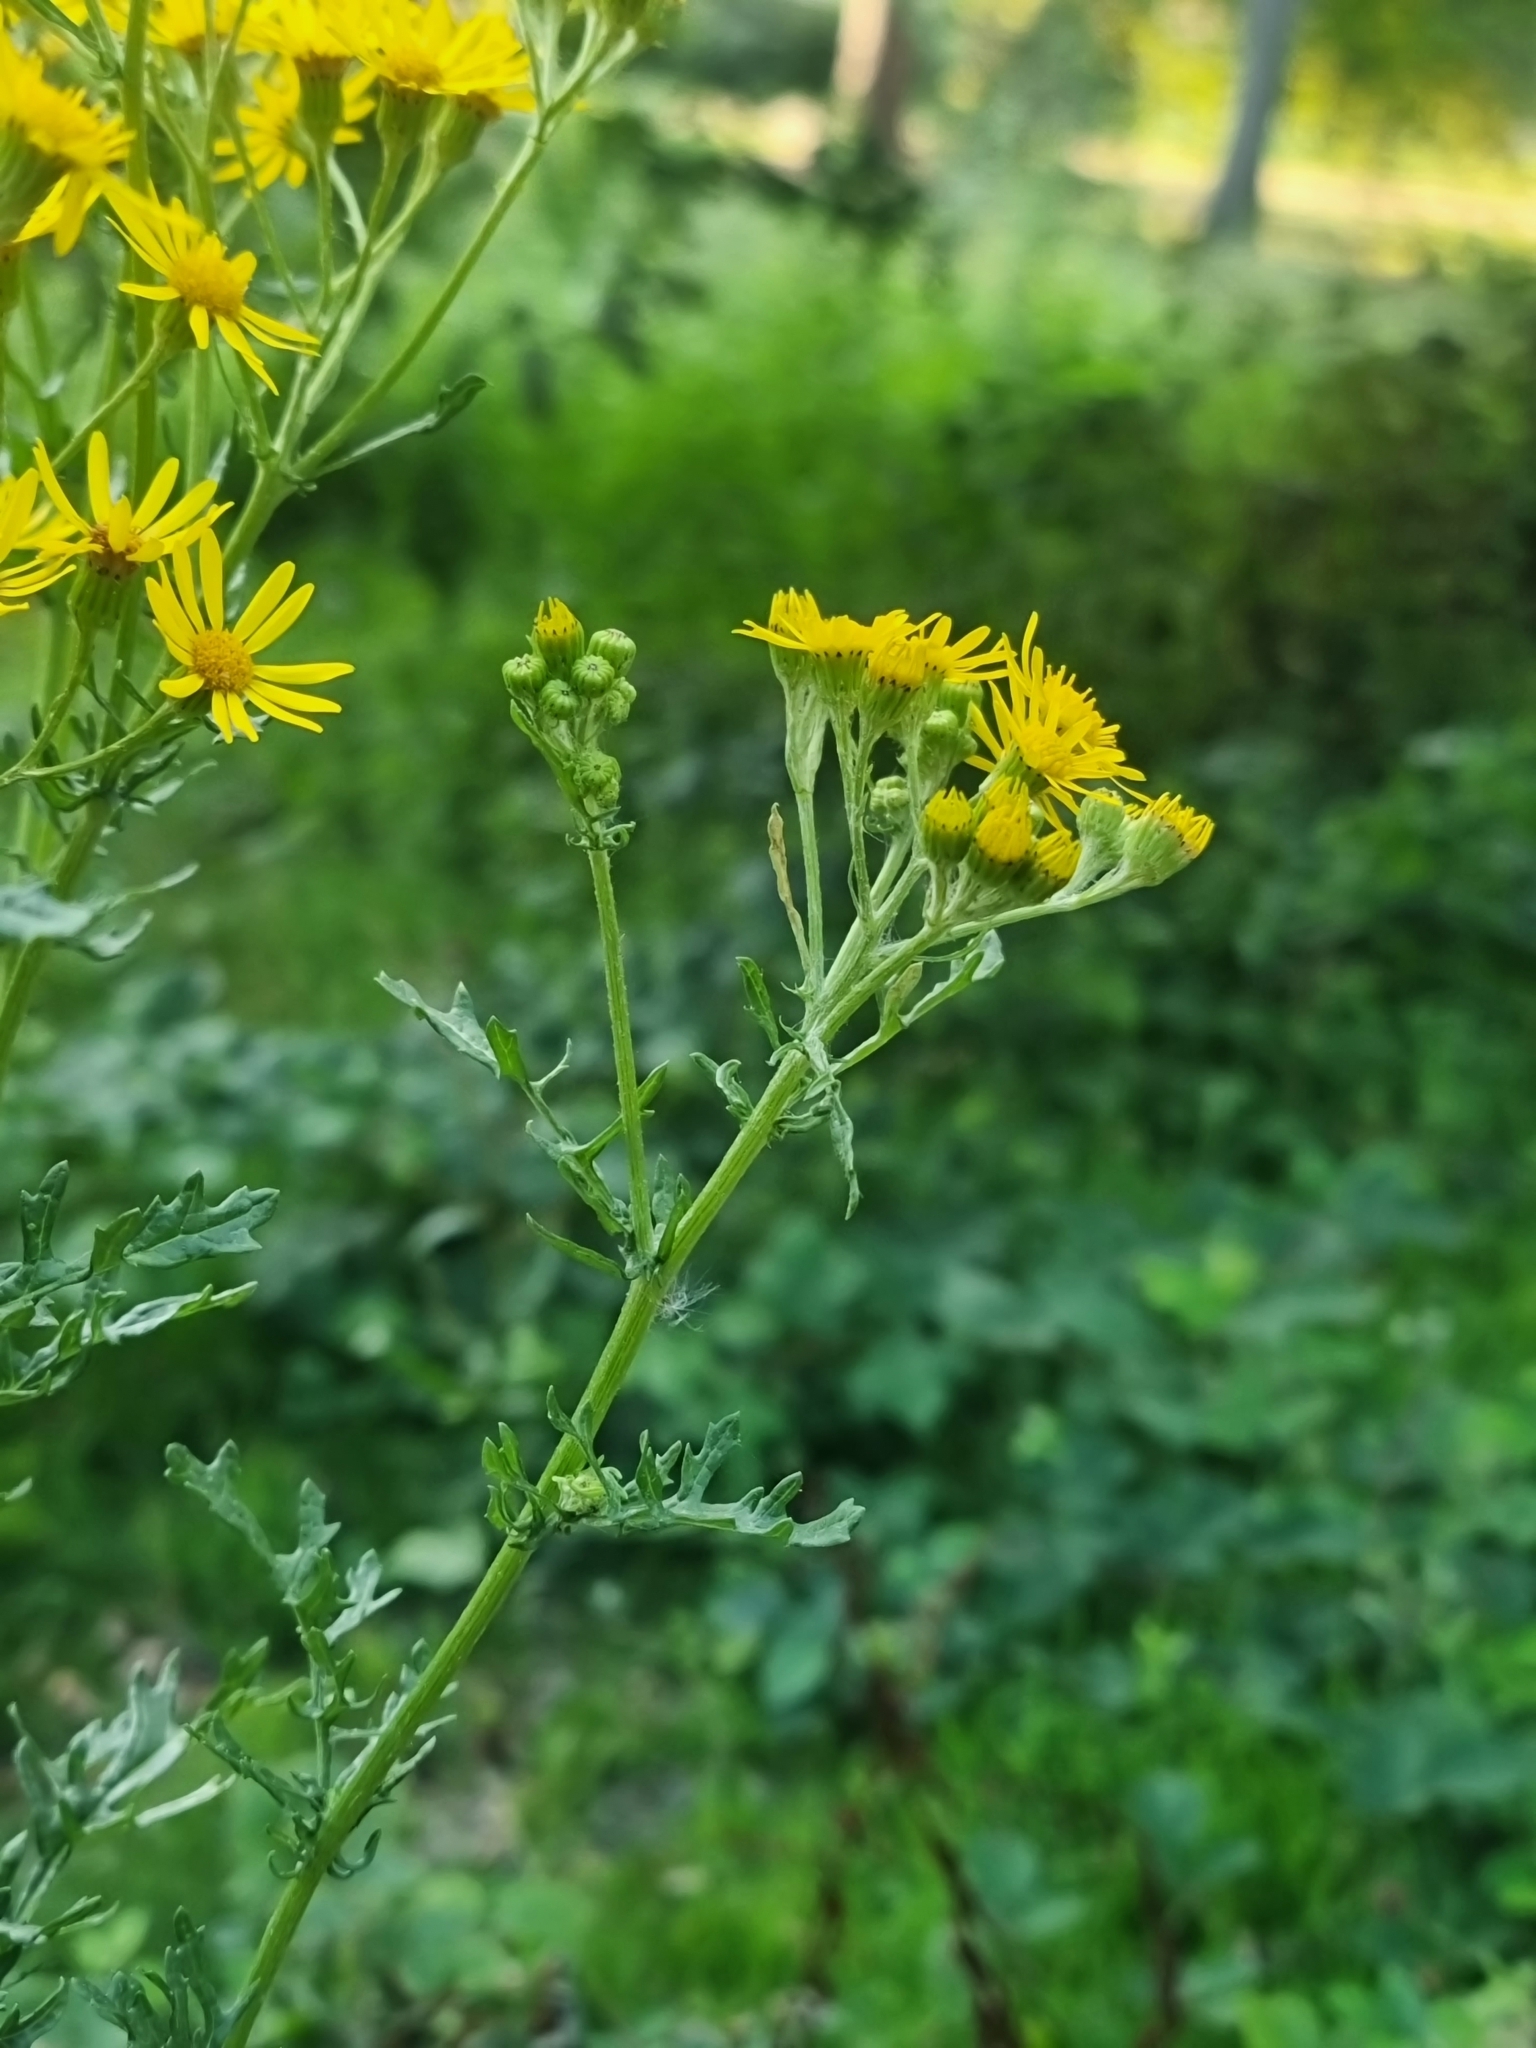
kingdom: Plantae
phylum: Tracheophyta
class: Magnoliopsida
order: Asterales
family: Asteraceae
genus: Jacobaea
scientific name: Jacobaea vulgaris
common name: Stinking willie
